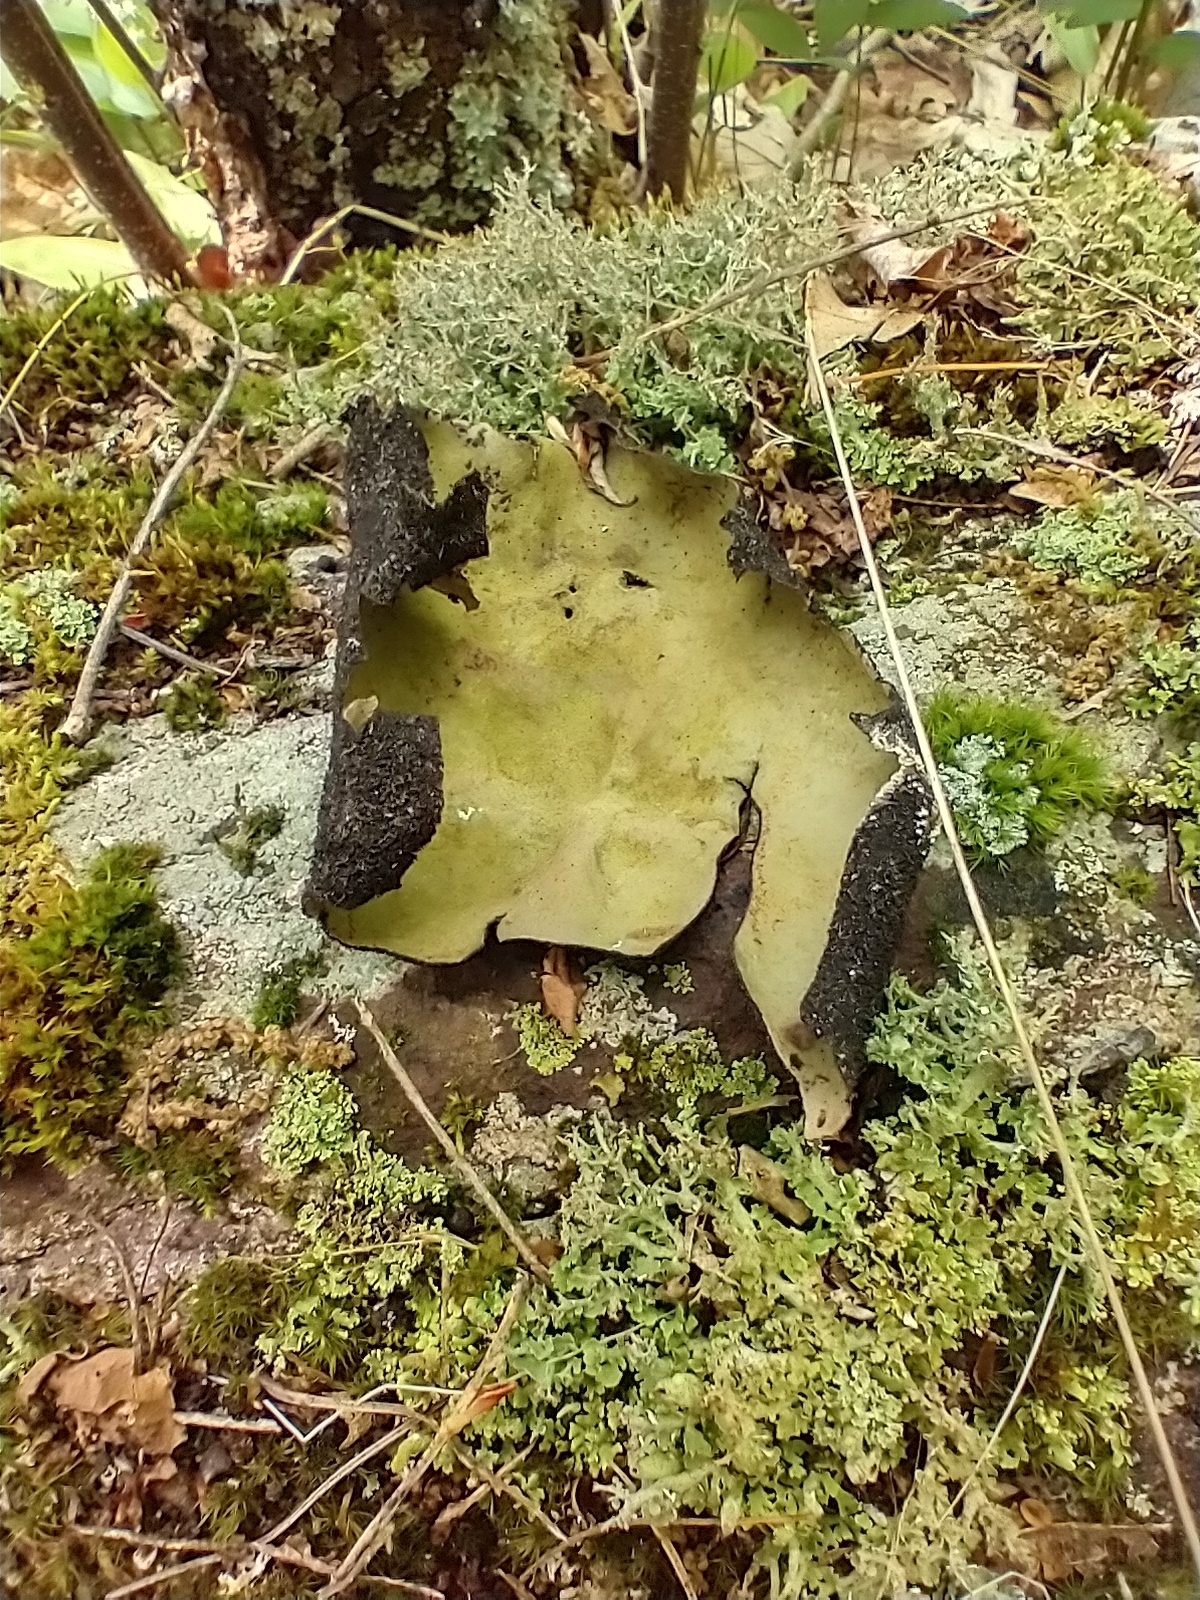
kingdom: Fungi
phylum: Ascomycota
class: Lecanoromycetes
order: Umbilicariales
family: Umbilicariaceae
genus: Umbilicaria
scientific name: Umbilicaria mammulata
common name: Smooth rock tripe
